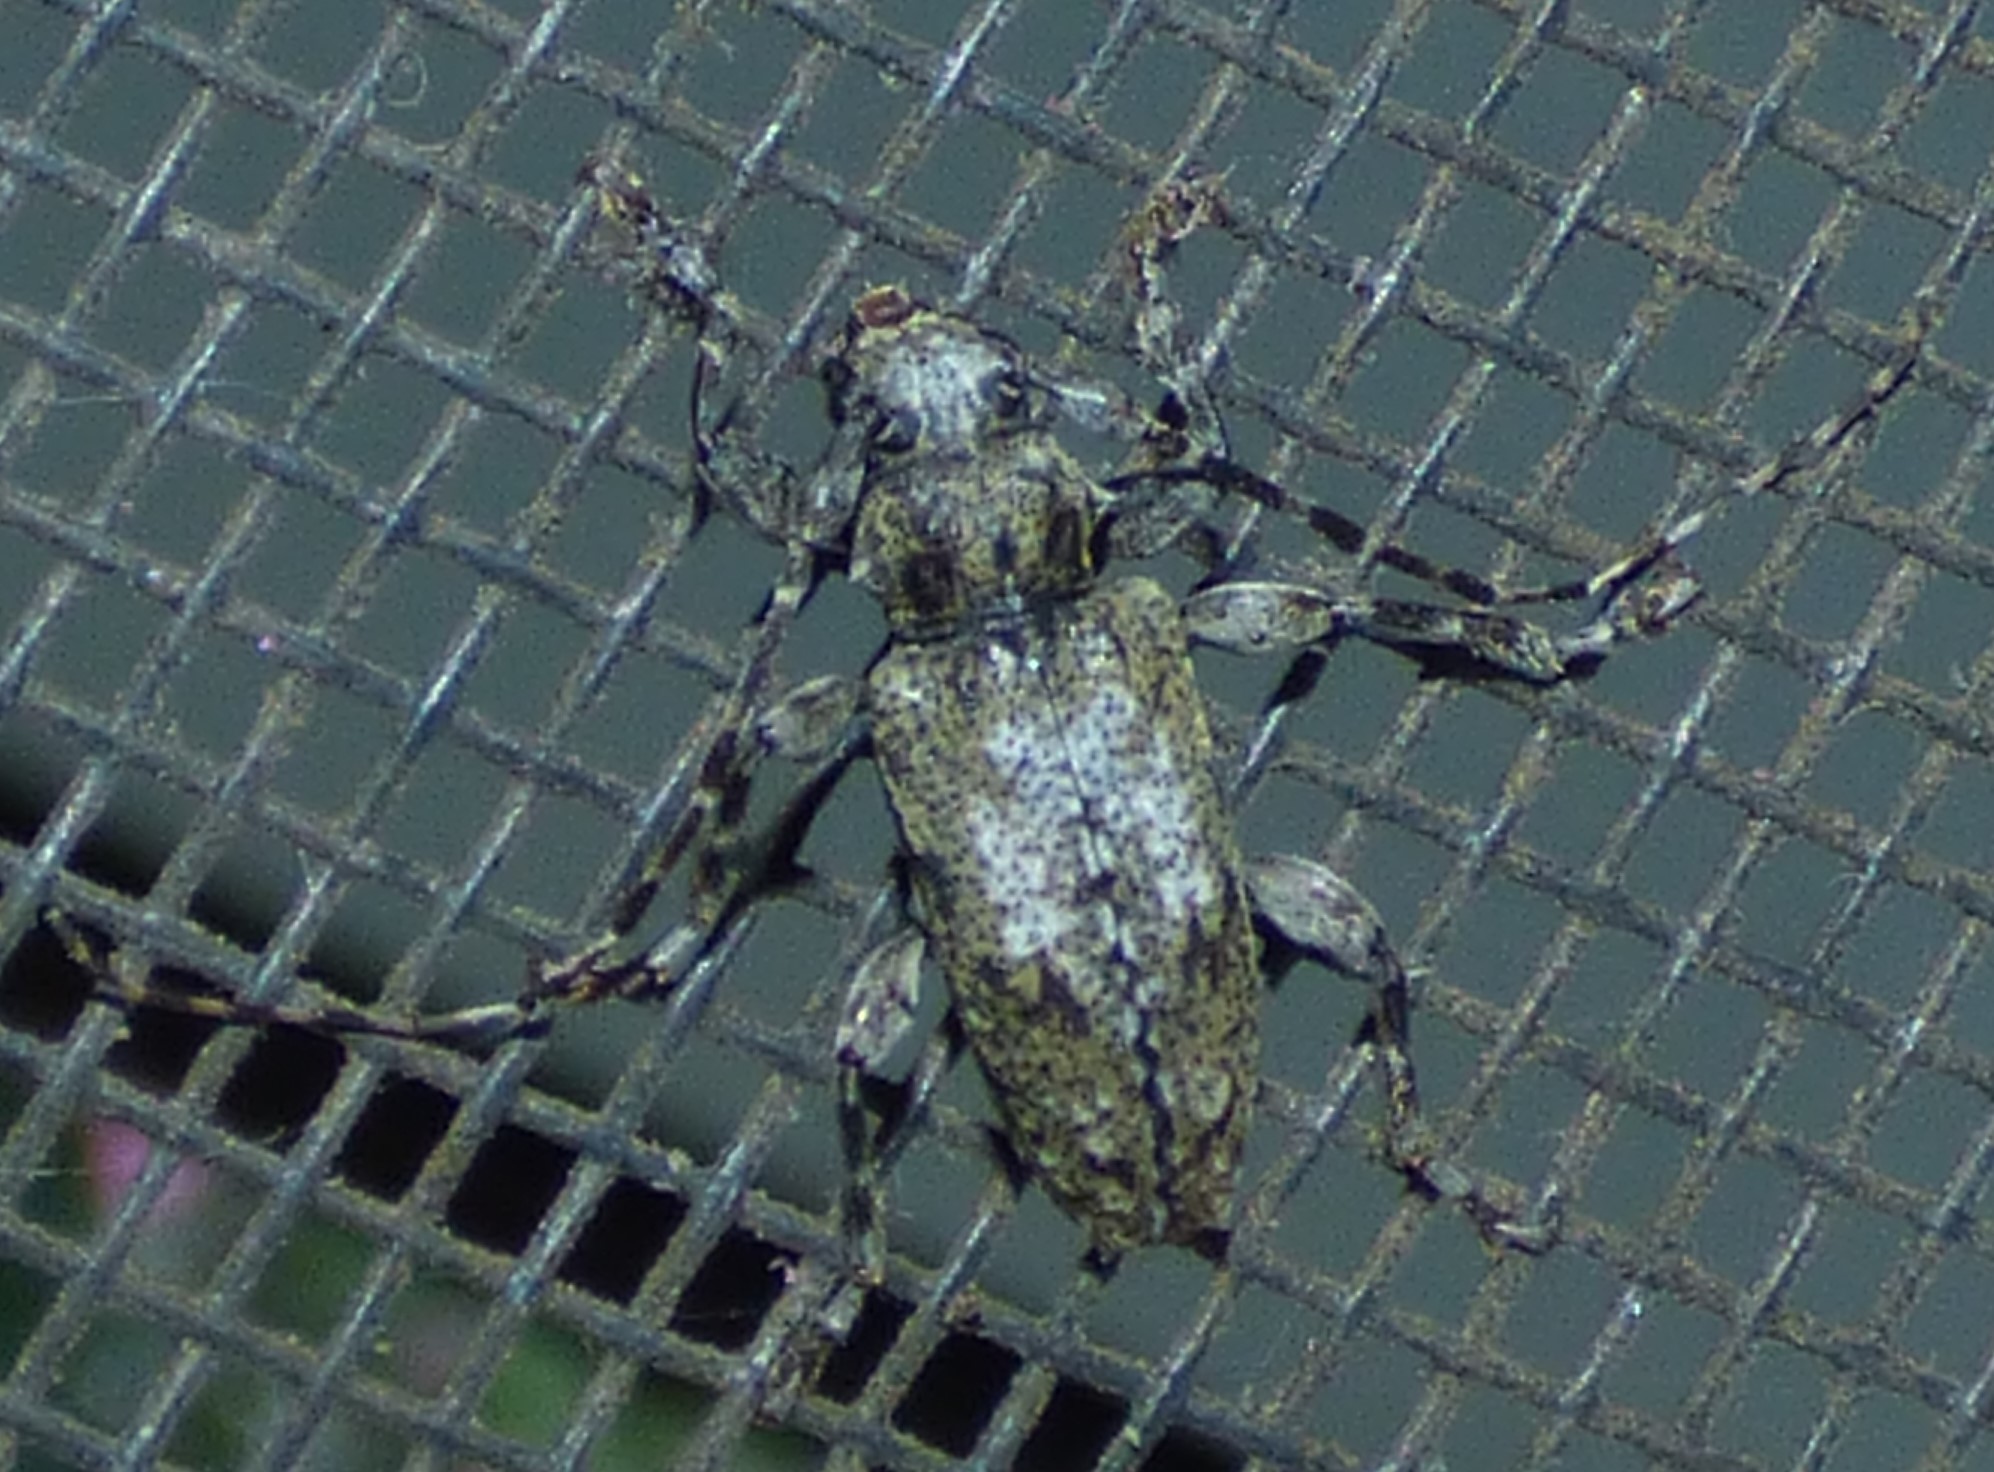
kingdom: Animalia
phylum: Arthropoda
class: Insecta
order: Coleoptera
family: Cerambycidae
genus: Aegomorphus
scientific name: Aegomorphus modestus
